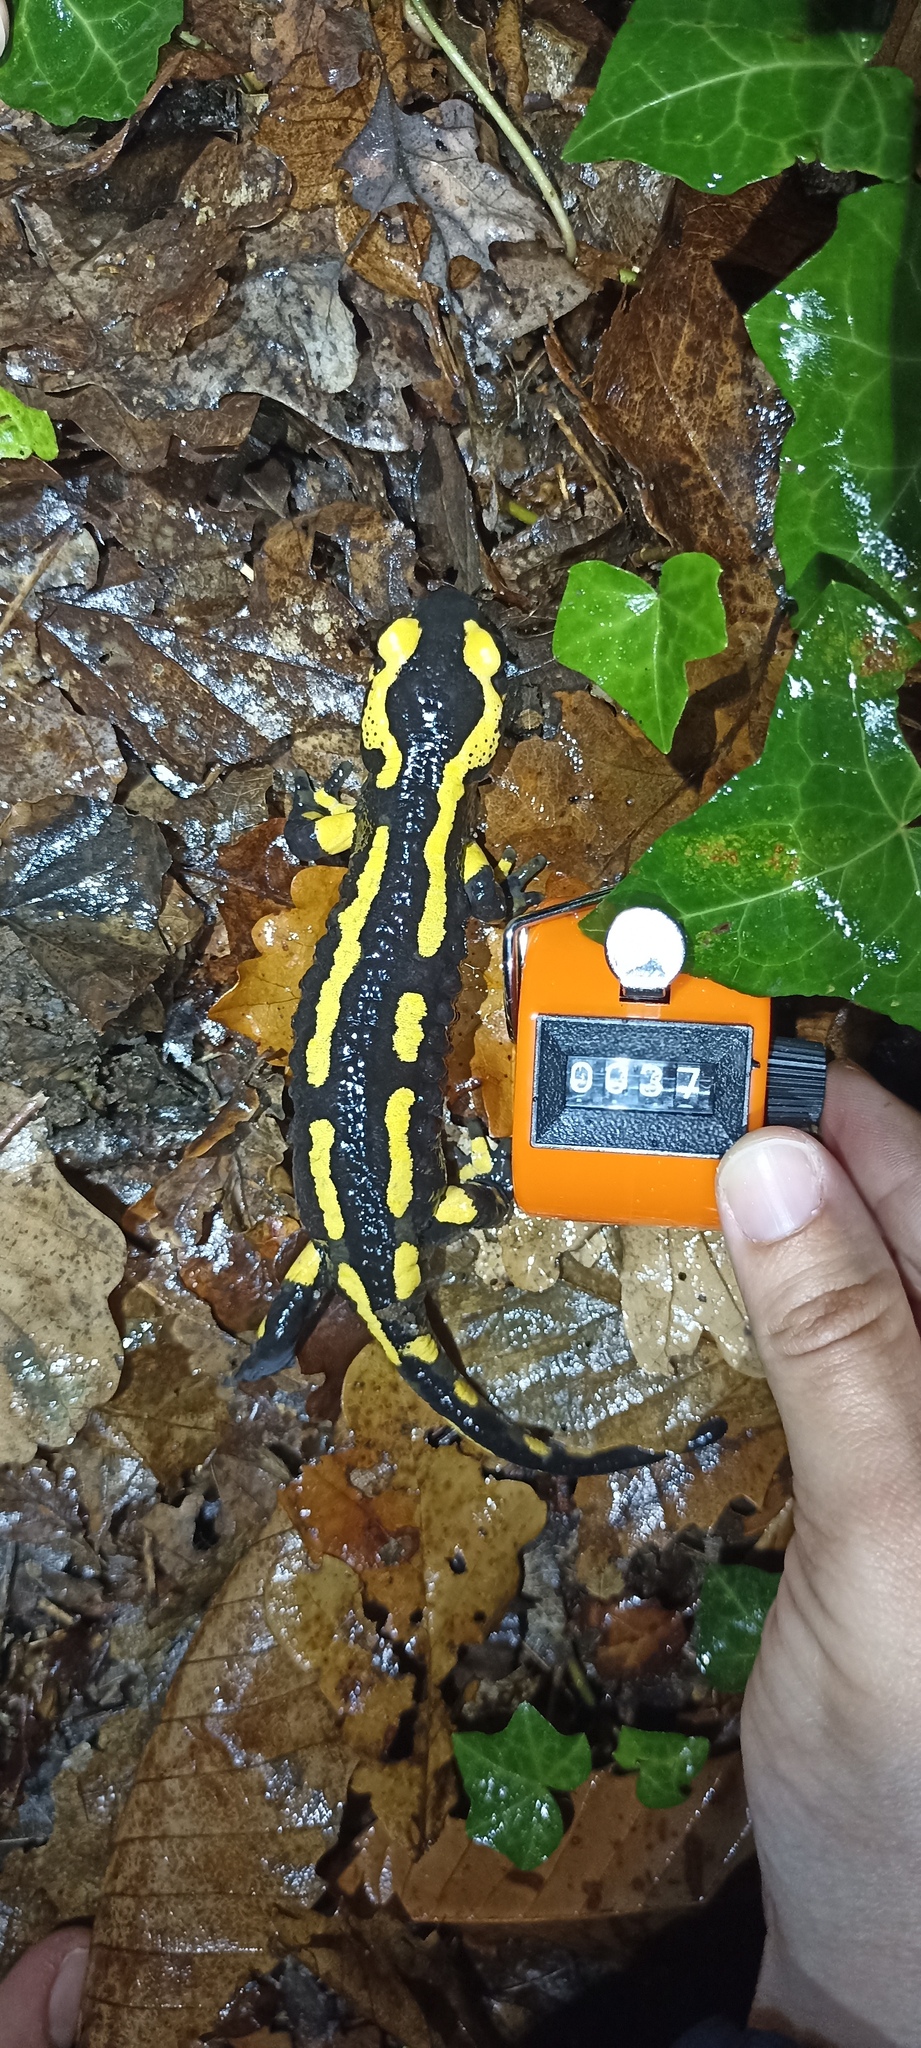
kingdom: Animalia
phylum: Chordata
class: Amphibia
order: Caudata
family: Salamandridae
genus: Salamandra
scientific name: Salamandra salamandra
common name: Fire salamander
